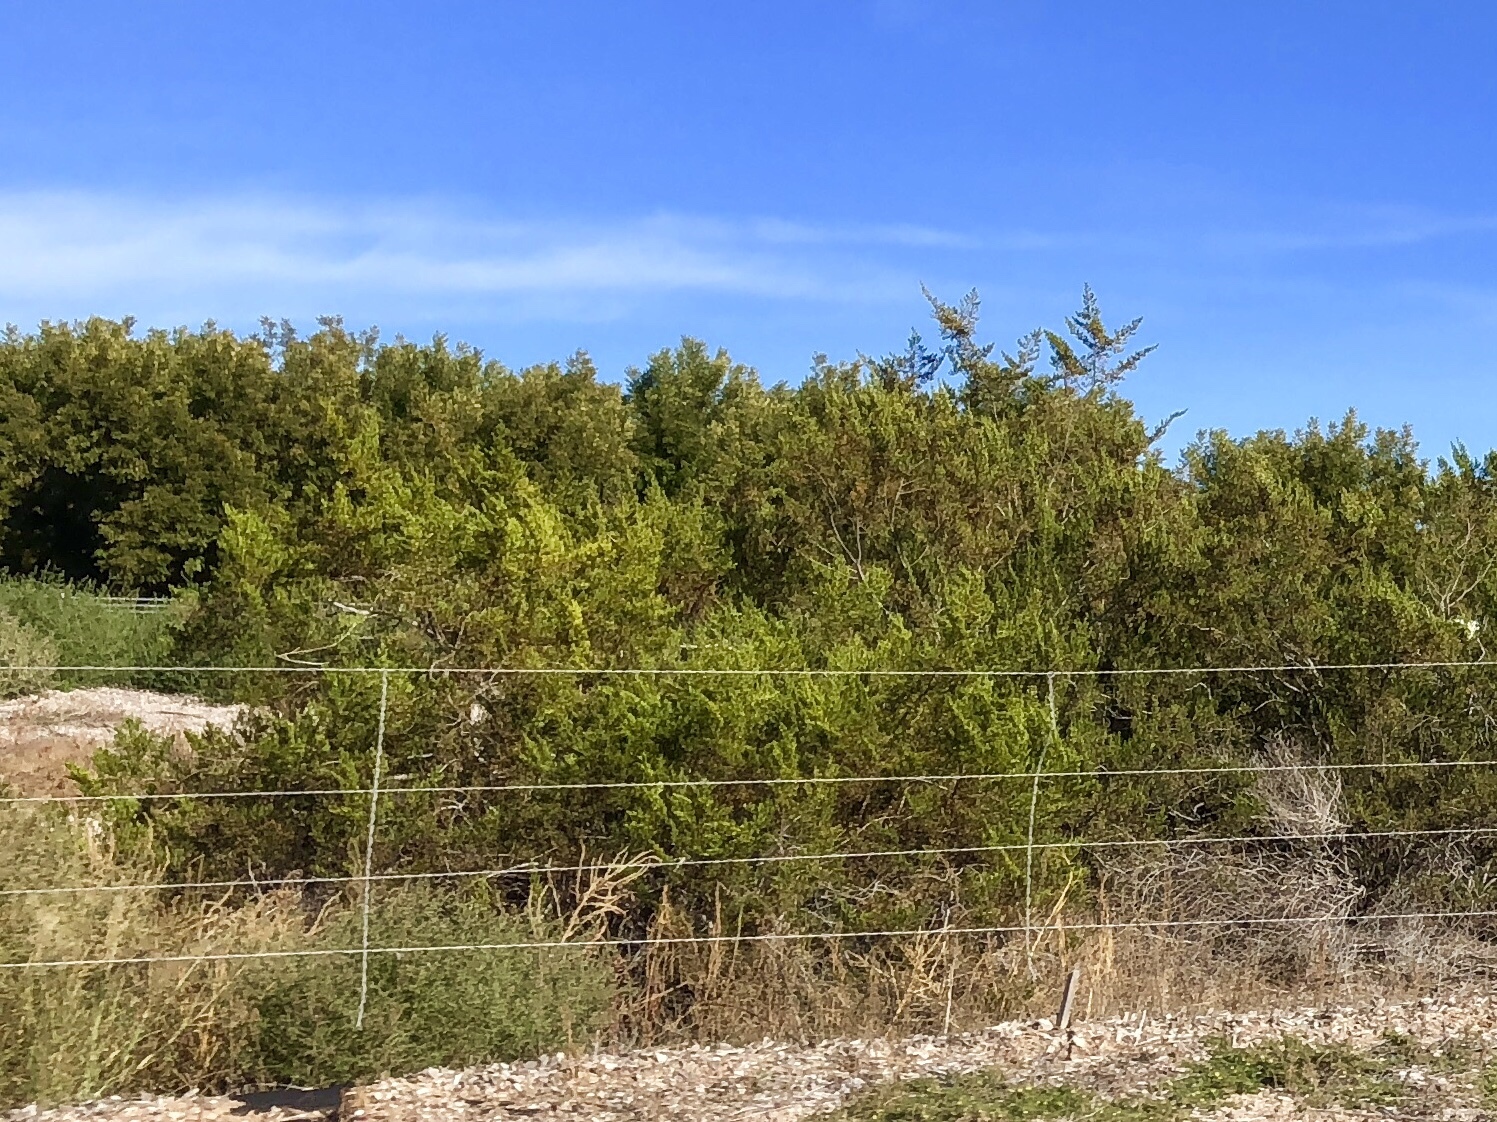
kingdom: Plantae
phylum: Tracheophyta
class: Magnoliopsida
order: Zygophyllales
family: Zygophyllaceae
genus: Larrea
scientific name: Larrea tridentata
